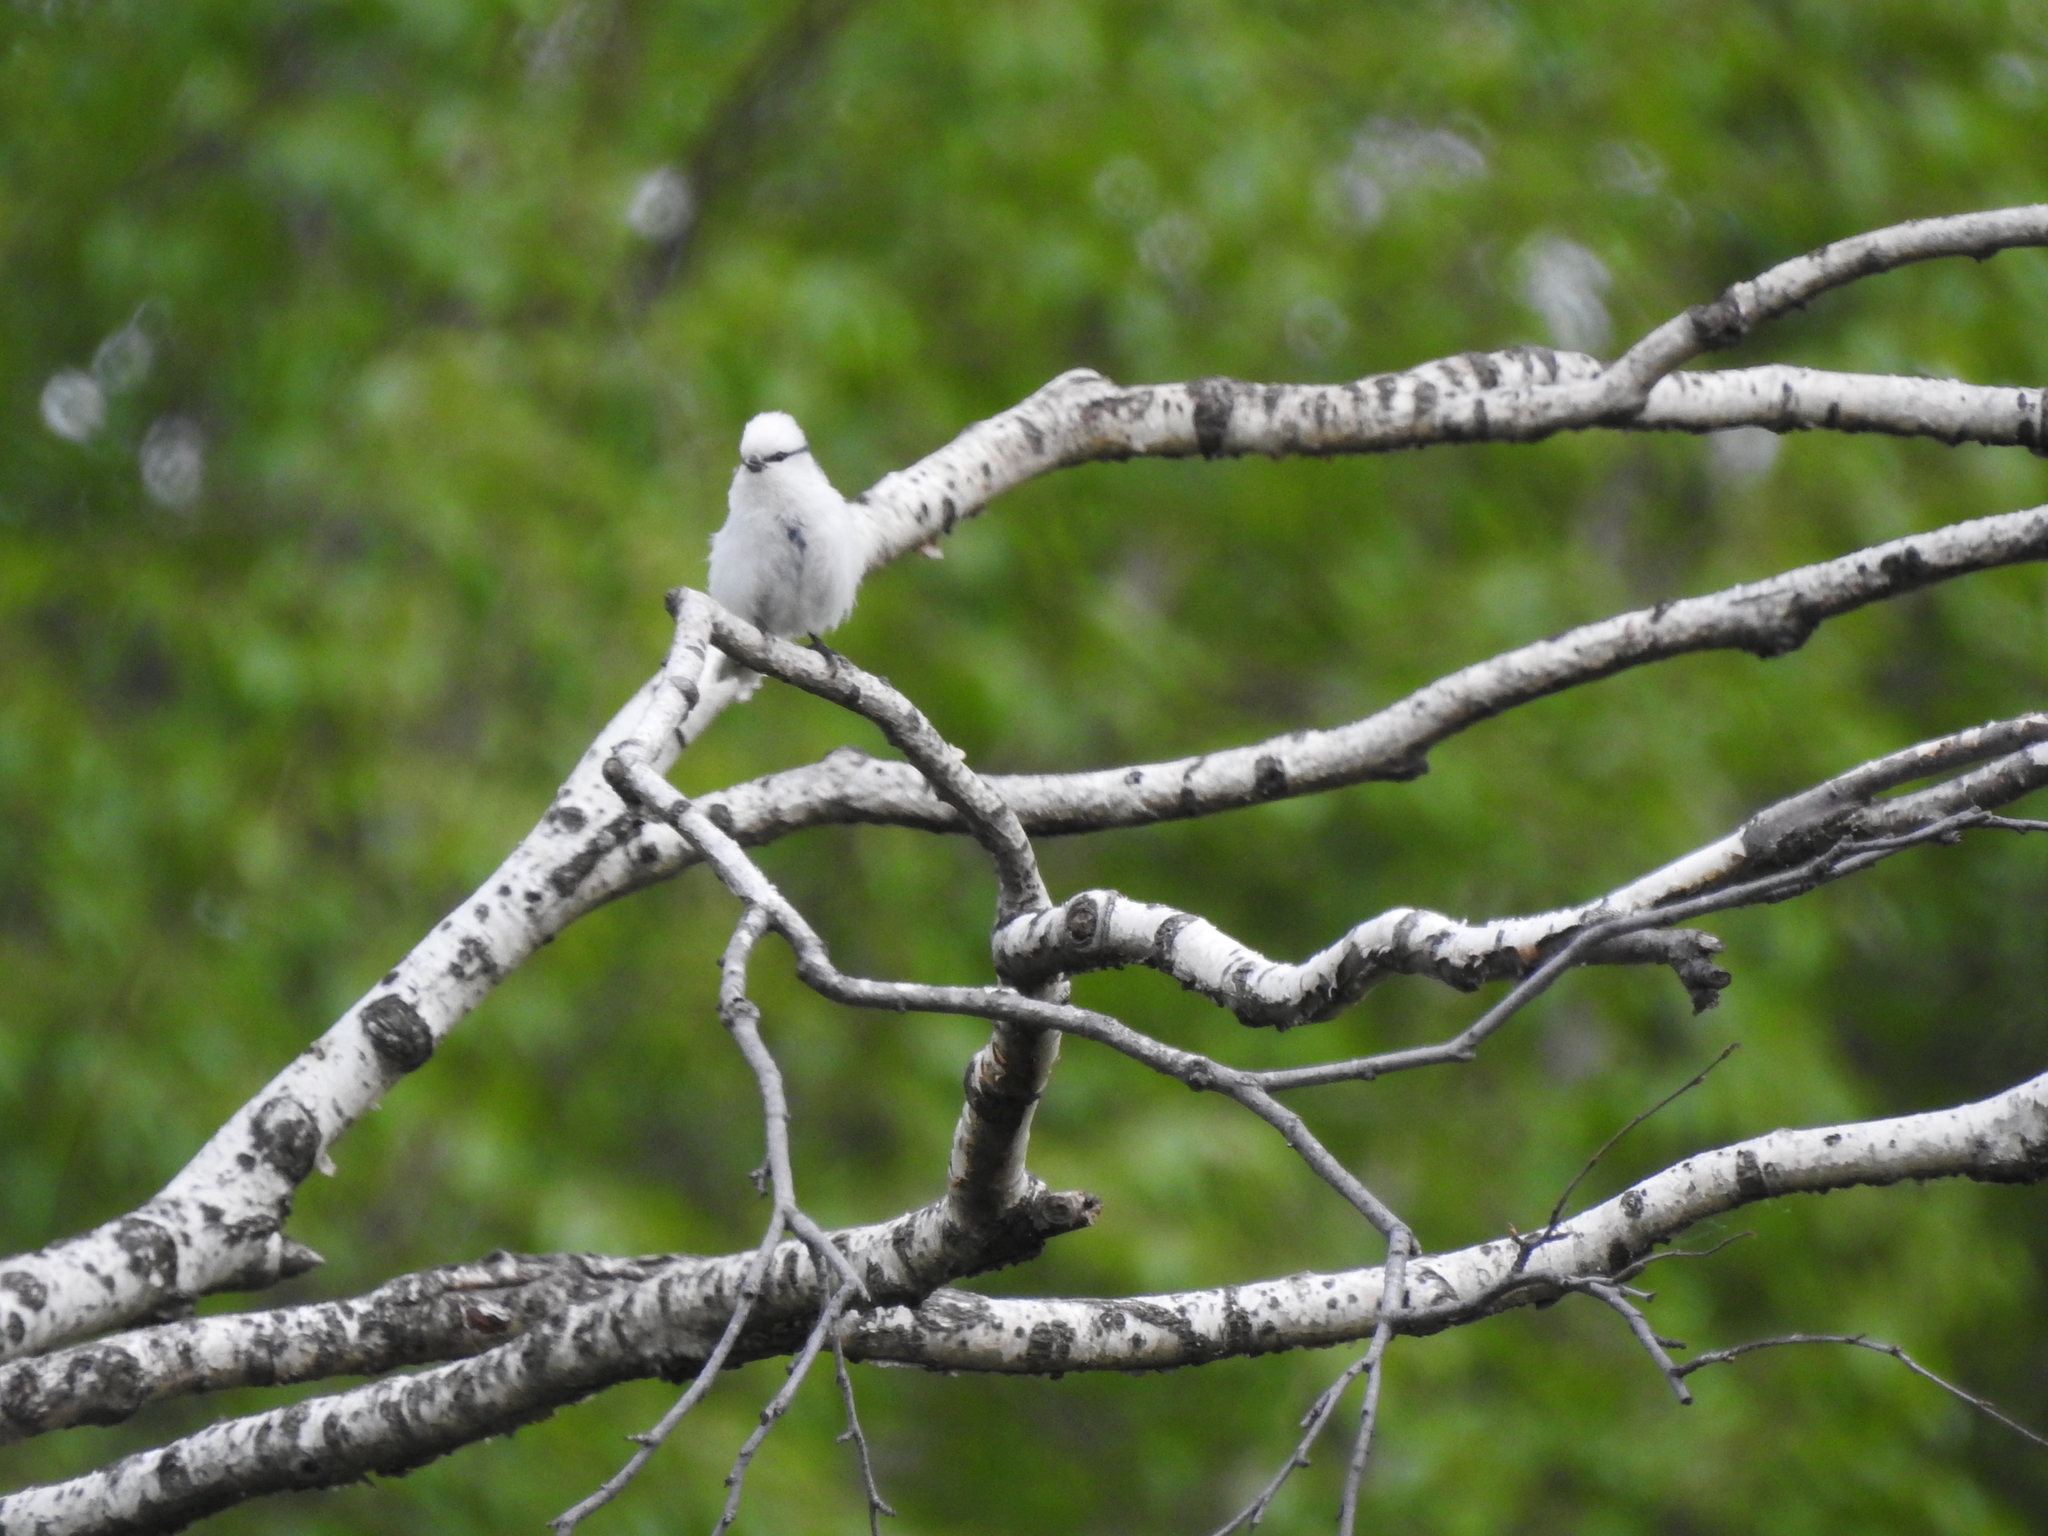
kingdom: Animalia
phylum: Chordata
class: Aves
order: Passeriformes
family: Paridae
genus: Cyanistes
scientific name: Cyanistes cyanus
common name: Azure tit
